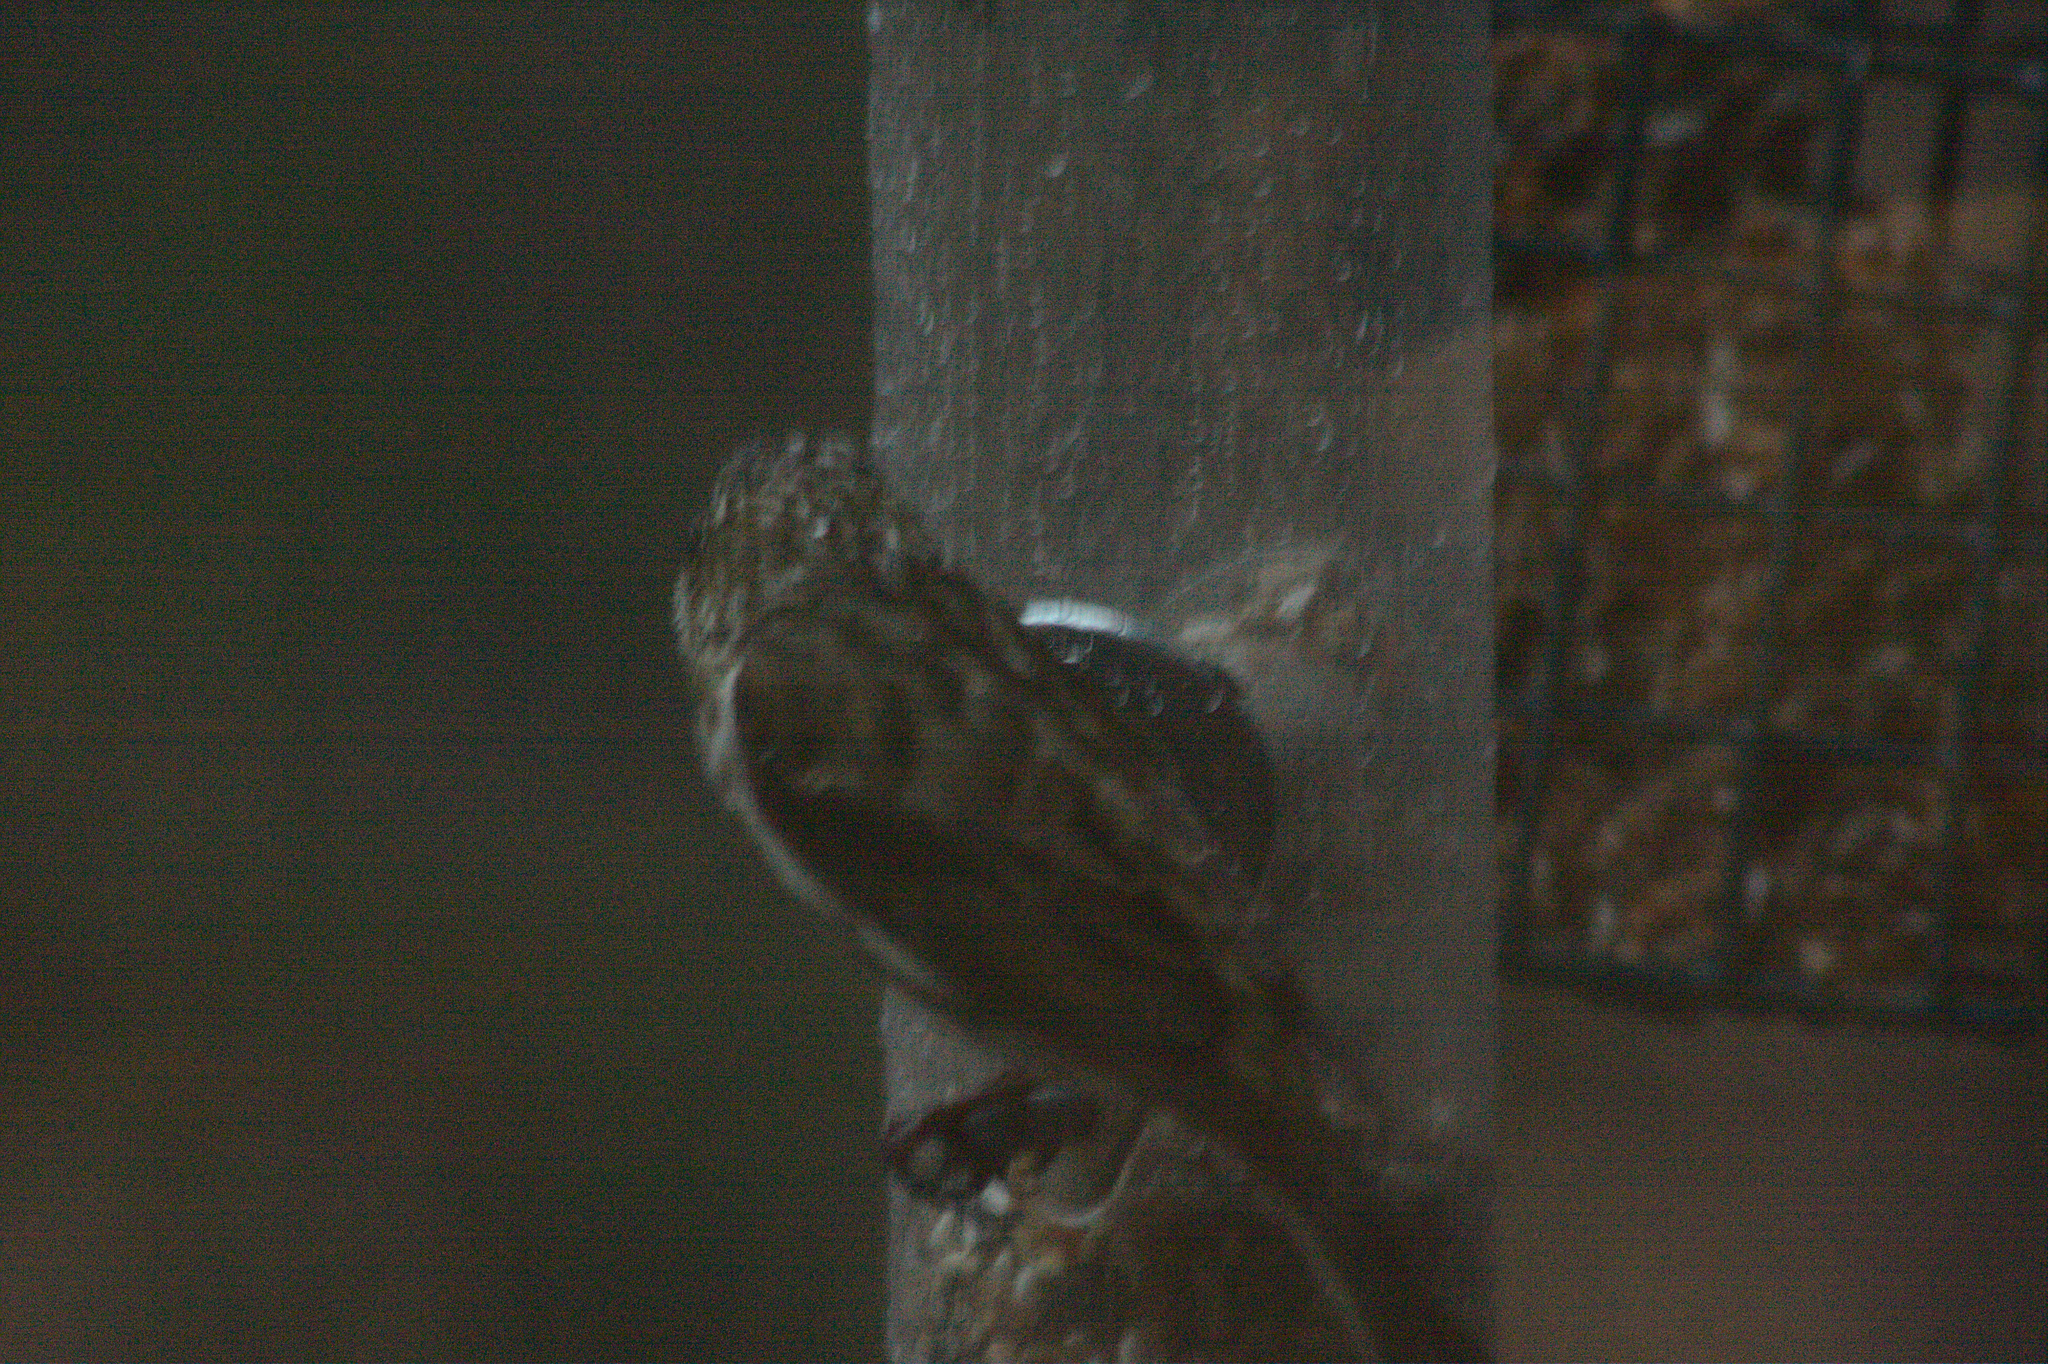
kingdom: Animalia
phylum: Chordata
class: Aves
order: Passeriformes
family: Fringillidae
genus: Haemorhous
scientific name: Haemorhous purpureus
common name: Purple finch
